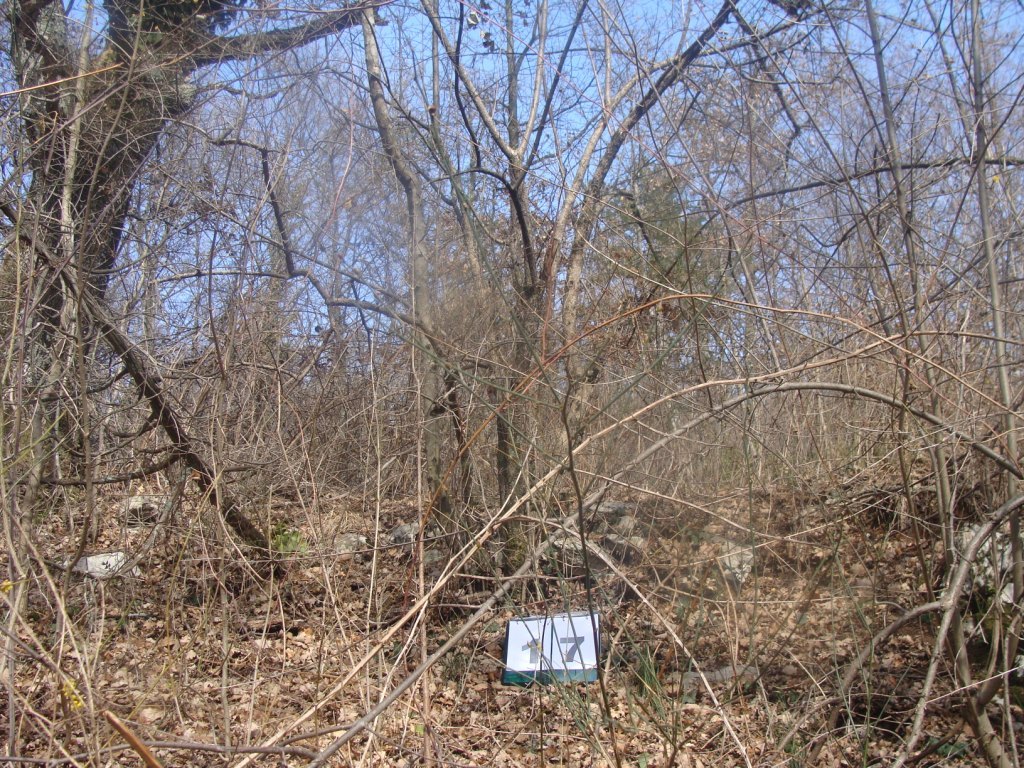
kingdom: Plantae
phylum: Tracheophyta
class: Magnoliopsida
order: Cornales
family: Cornaceae
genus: Cornus
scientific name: Cornus mas
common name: Cornelian-cherry
